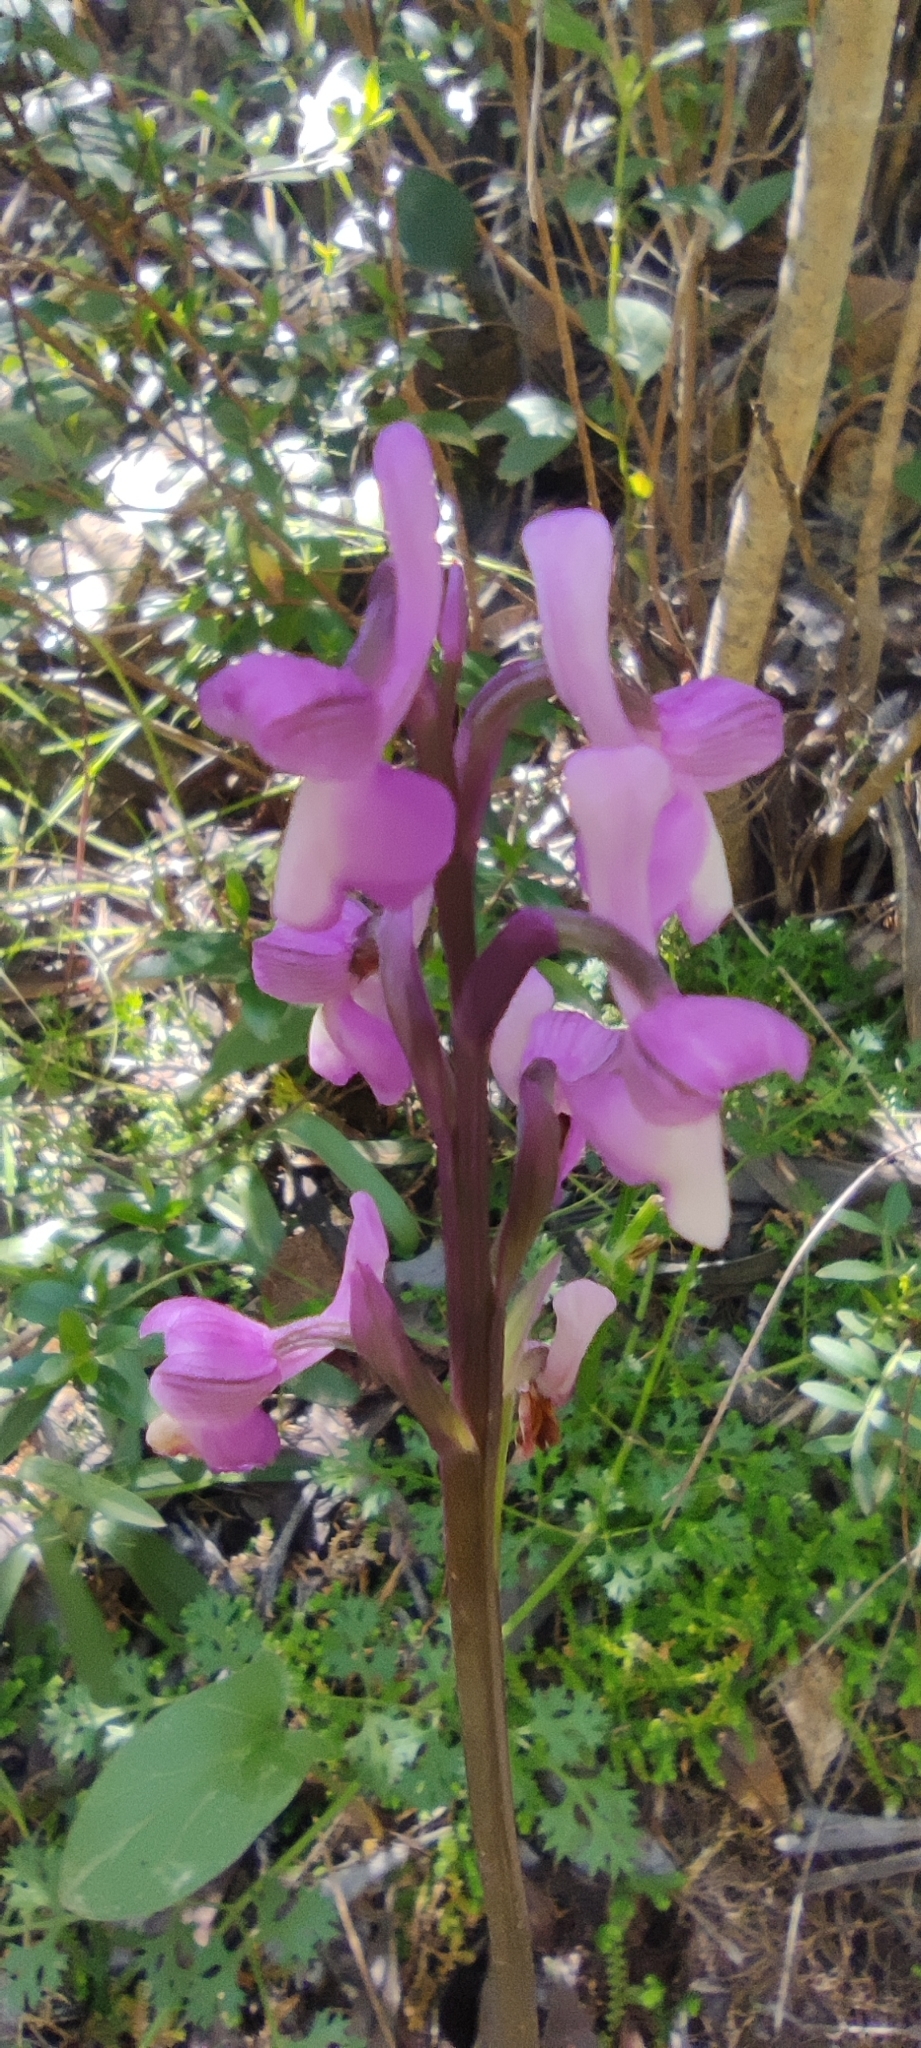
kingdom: Plantae
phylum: Tracheophyta
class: Liliopsida
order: Asparagales
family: Orchidaceae
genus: Anacamptis
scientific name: Anacamptis morio
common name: Green-winged orchid
